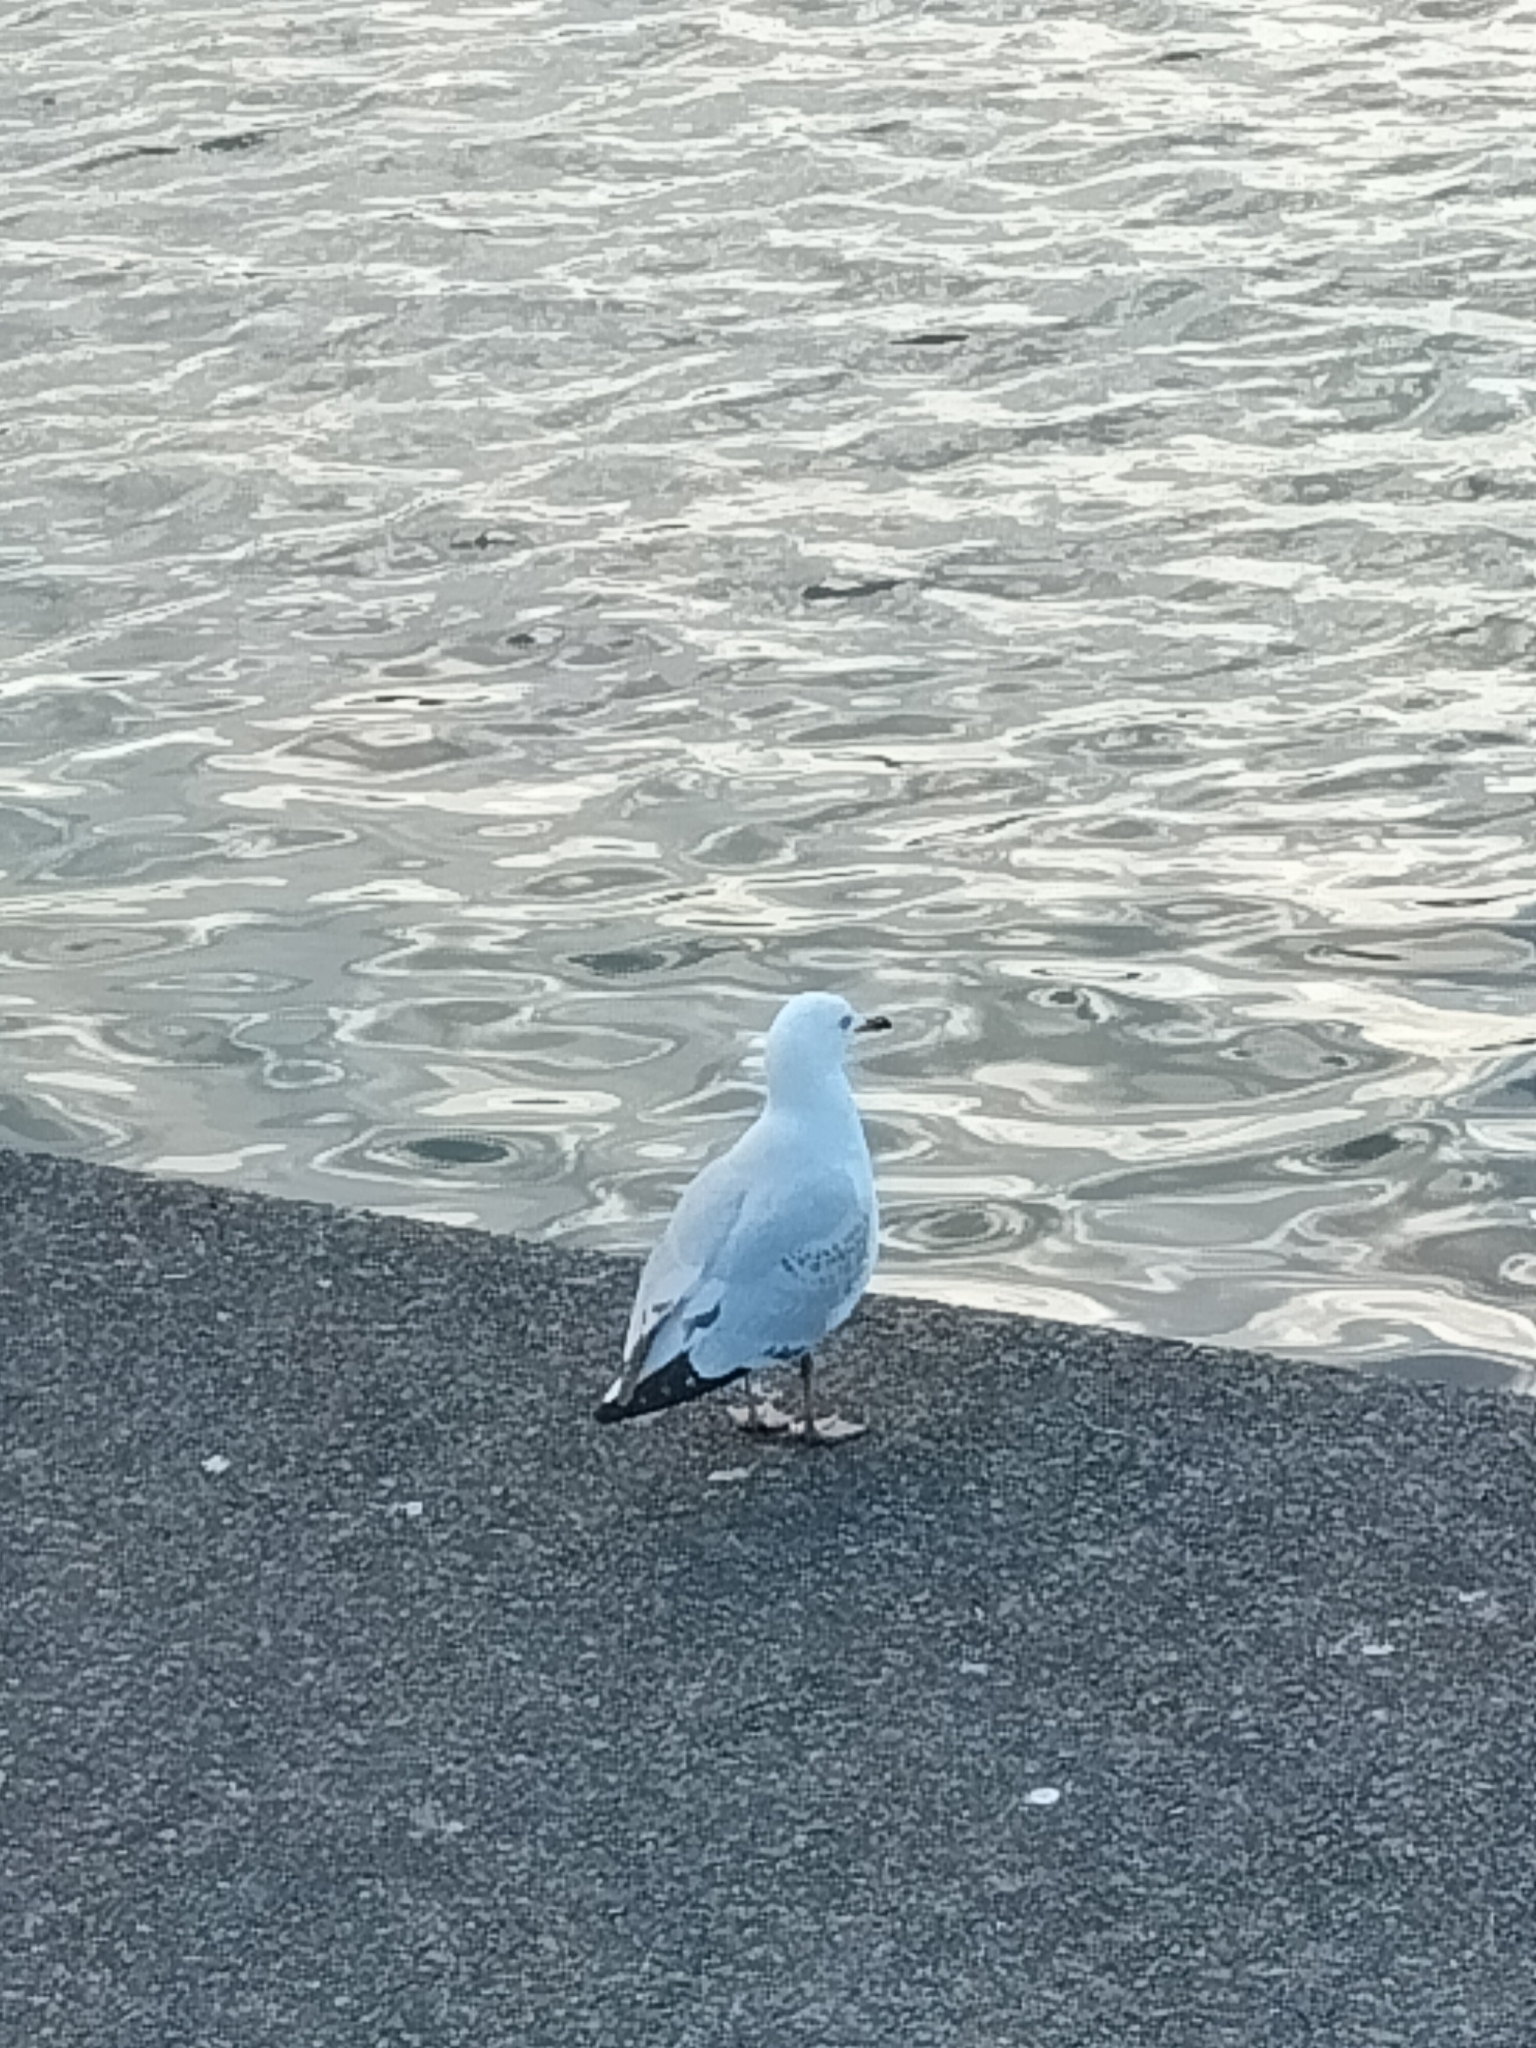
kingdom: Animalia
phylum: Chordata
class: Aves
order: Charadriiformes
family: Laridae
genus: Chroicocephalus
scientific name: Chroicocephalus novaehollandiae
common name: Silver gull
